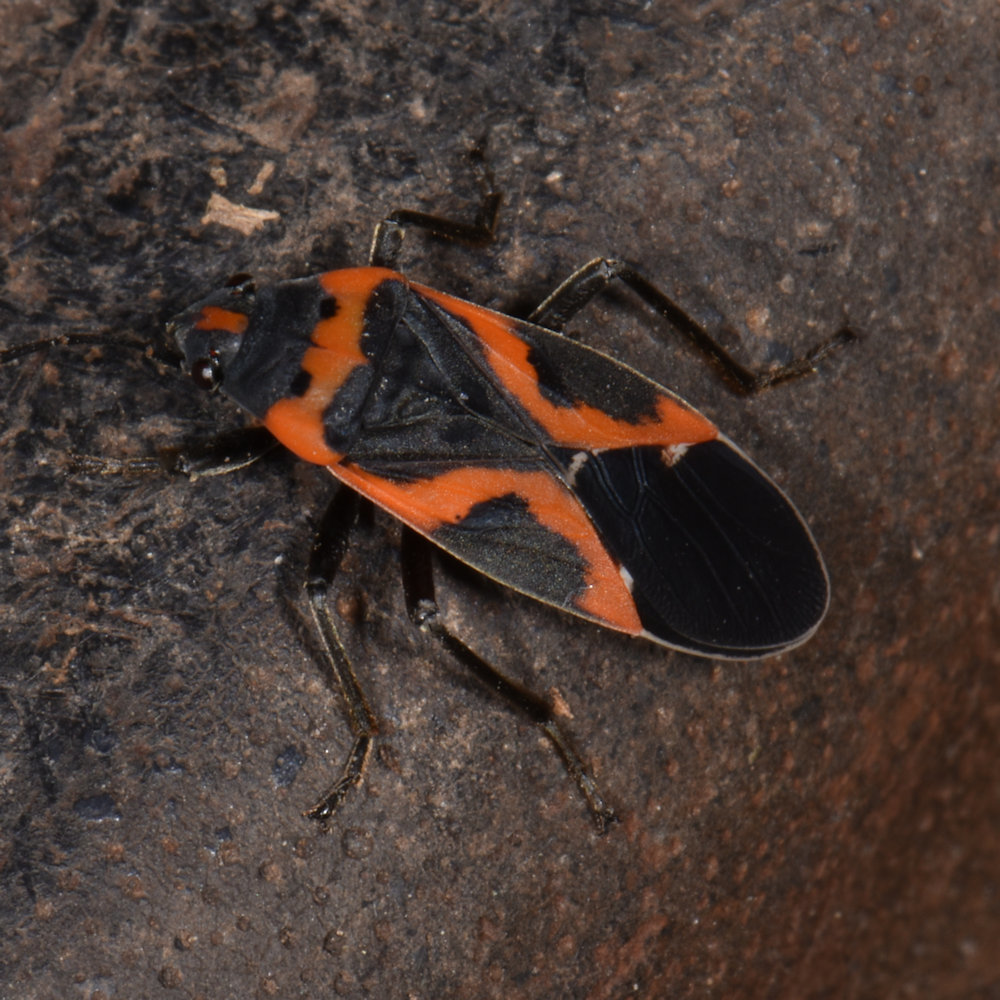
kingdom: Animalia
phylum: Arthropoda
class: Insecta
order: Hemiptera
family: Lygaeidae
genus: Lygaeus
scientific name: Lygaeus kalmii
